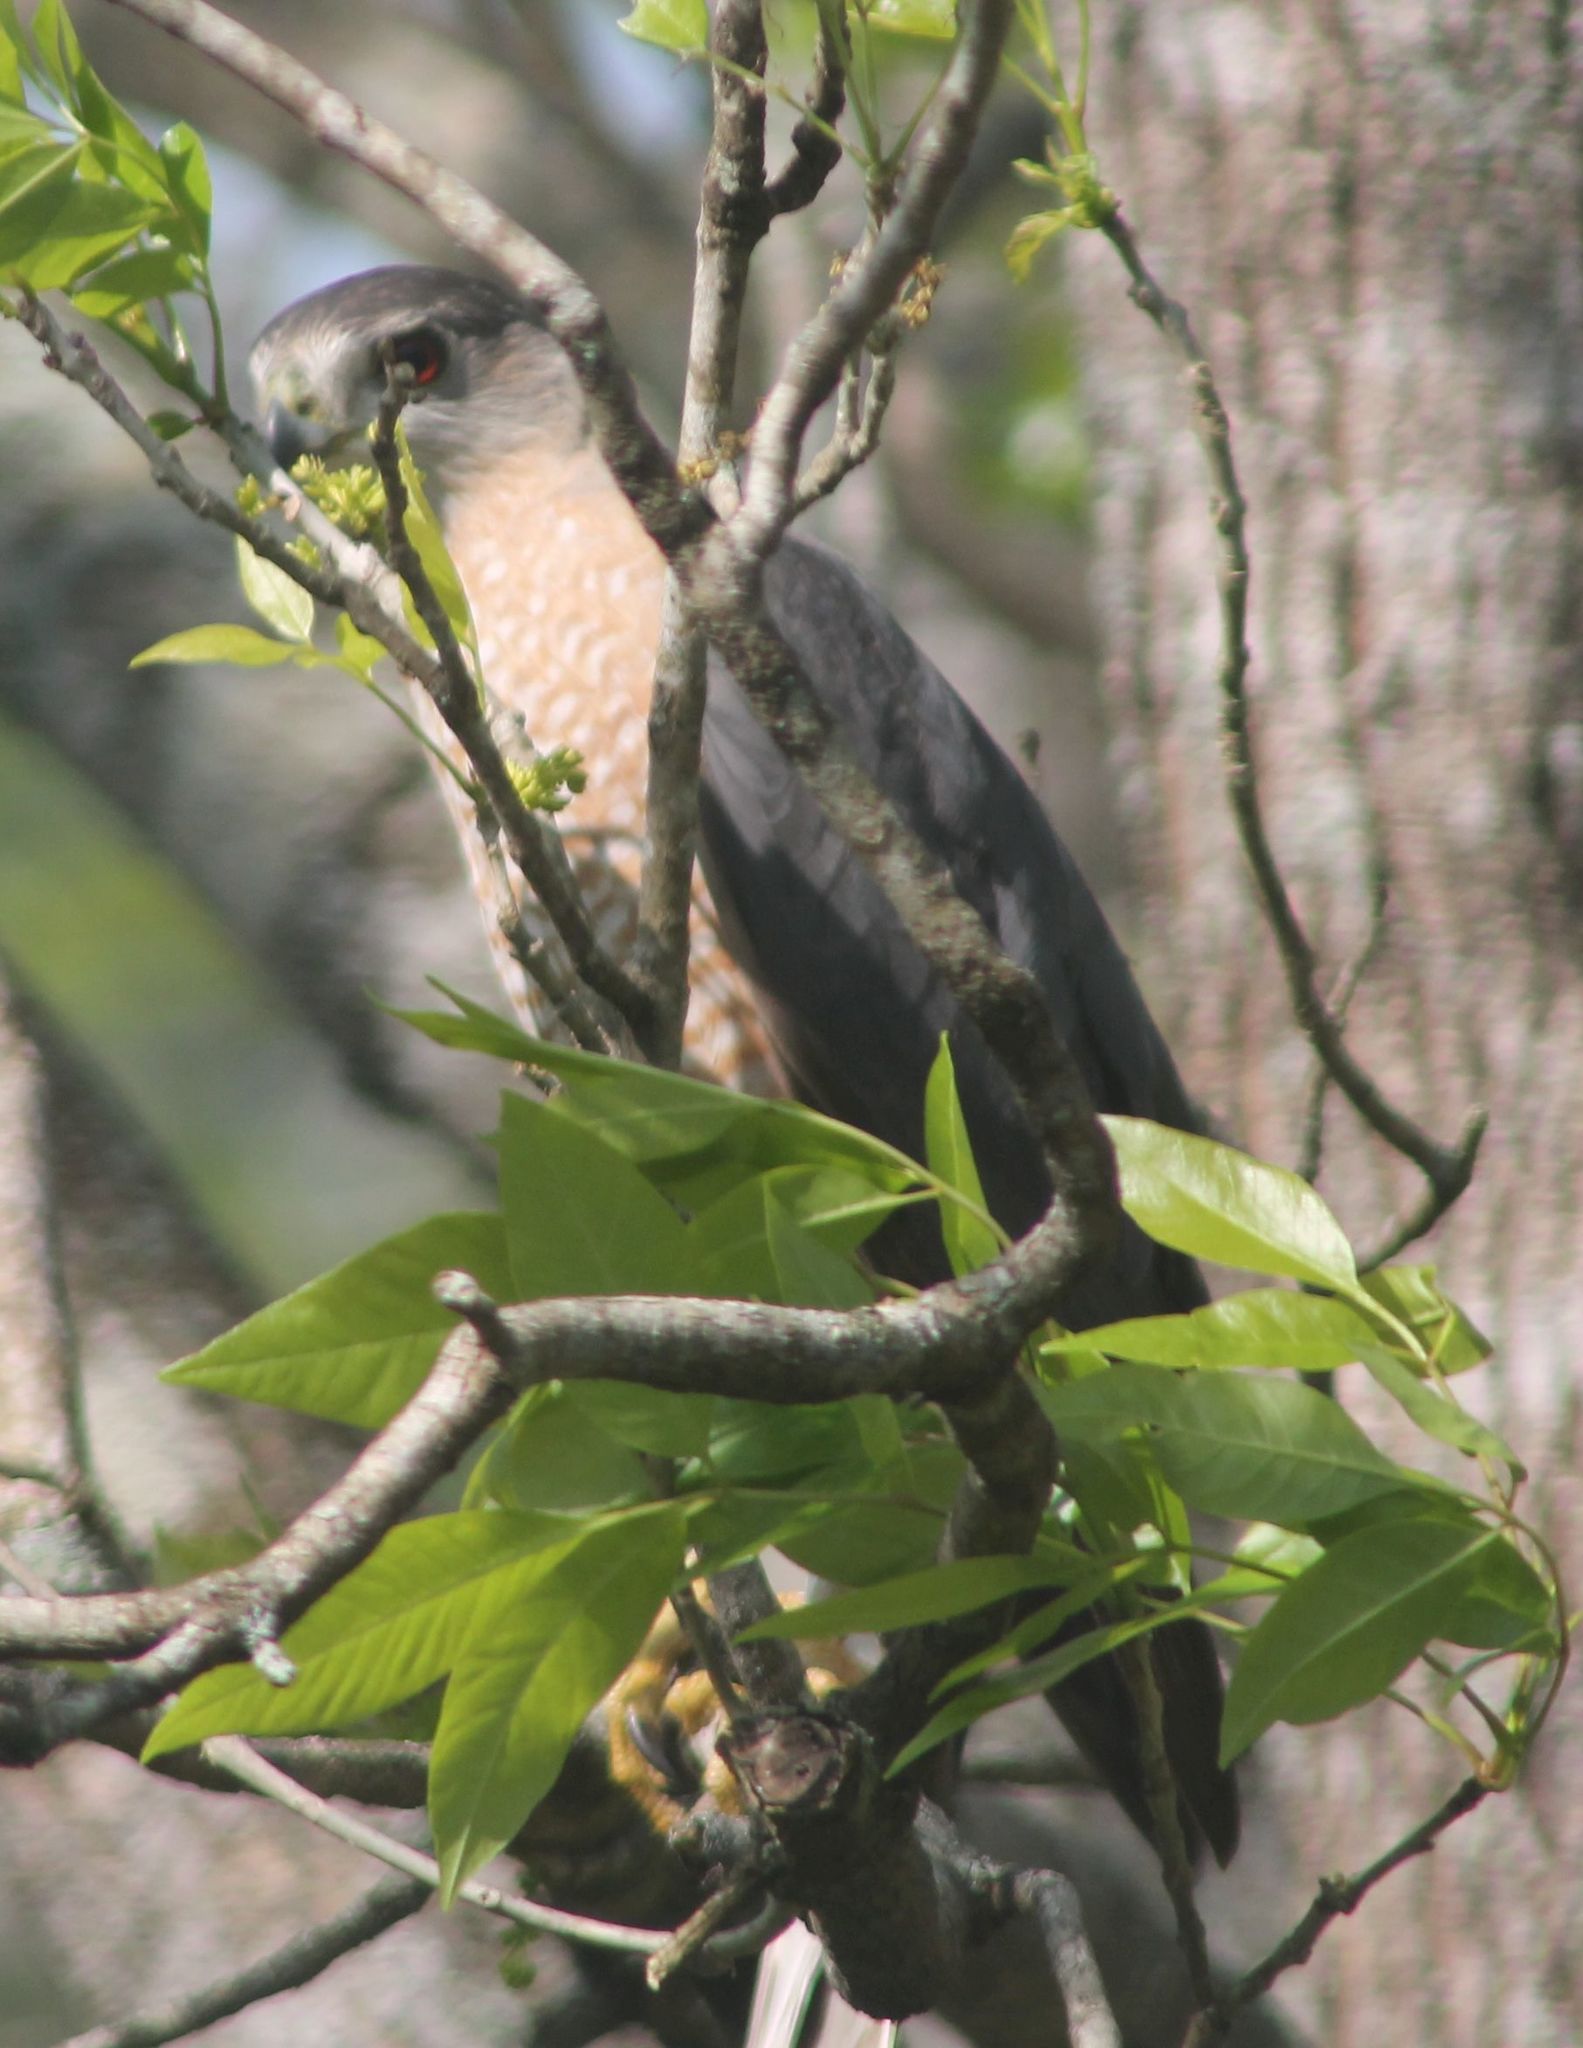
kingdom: Animalia
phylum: Chordata
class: Aves
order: Accipitriformes
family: Accipitridae
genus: Accipiter
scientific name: Accipiter cooperii
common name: Cooper's hawk
